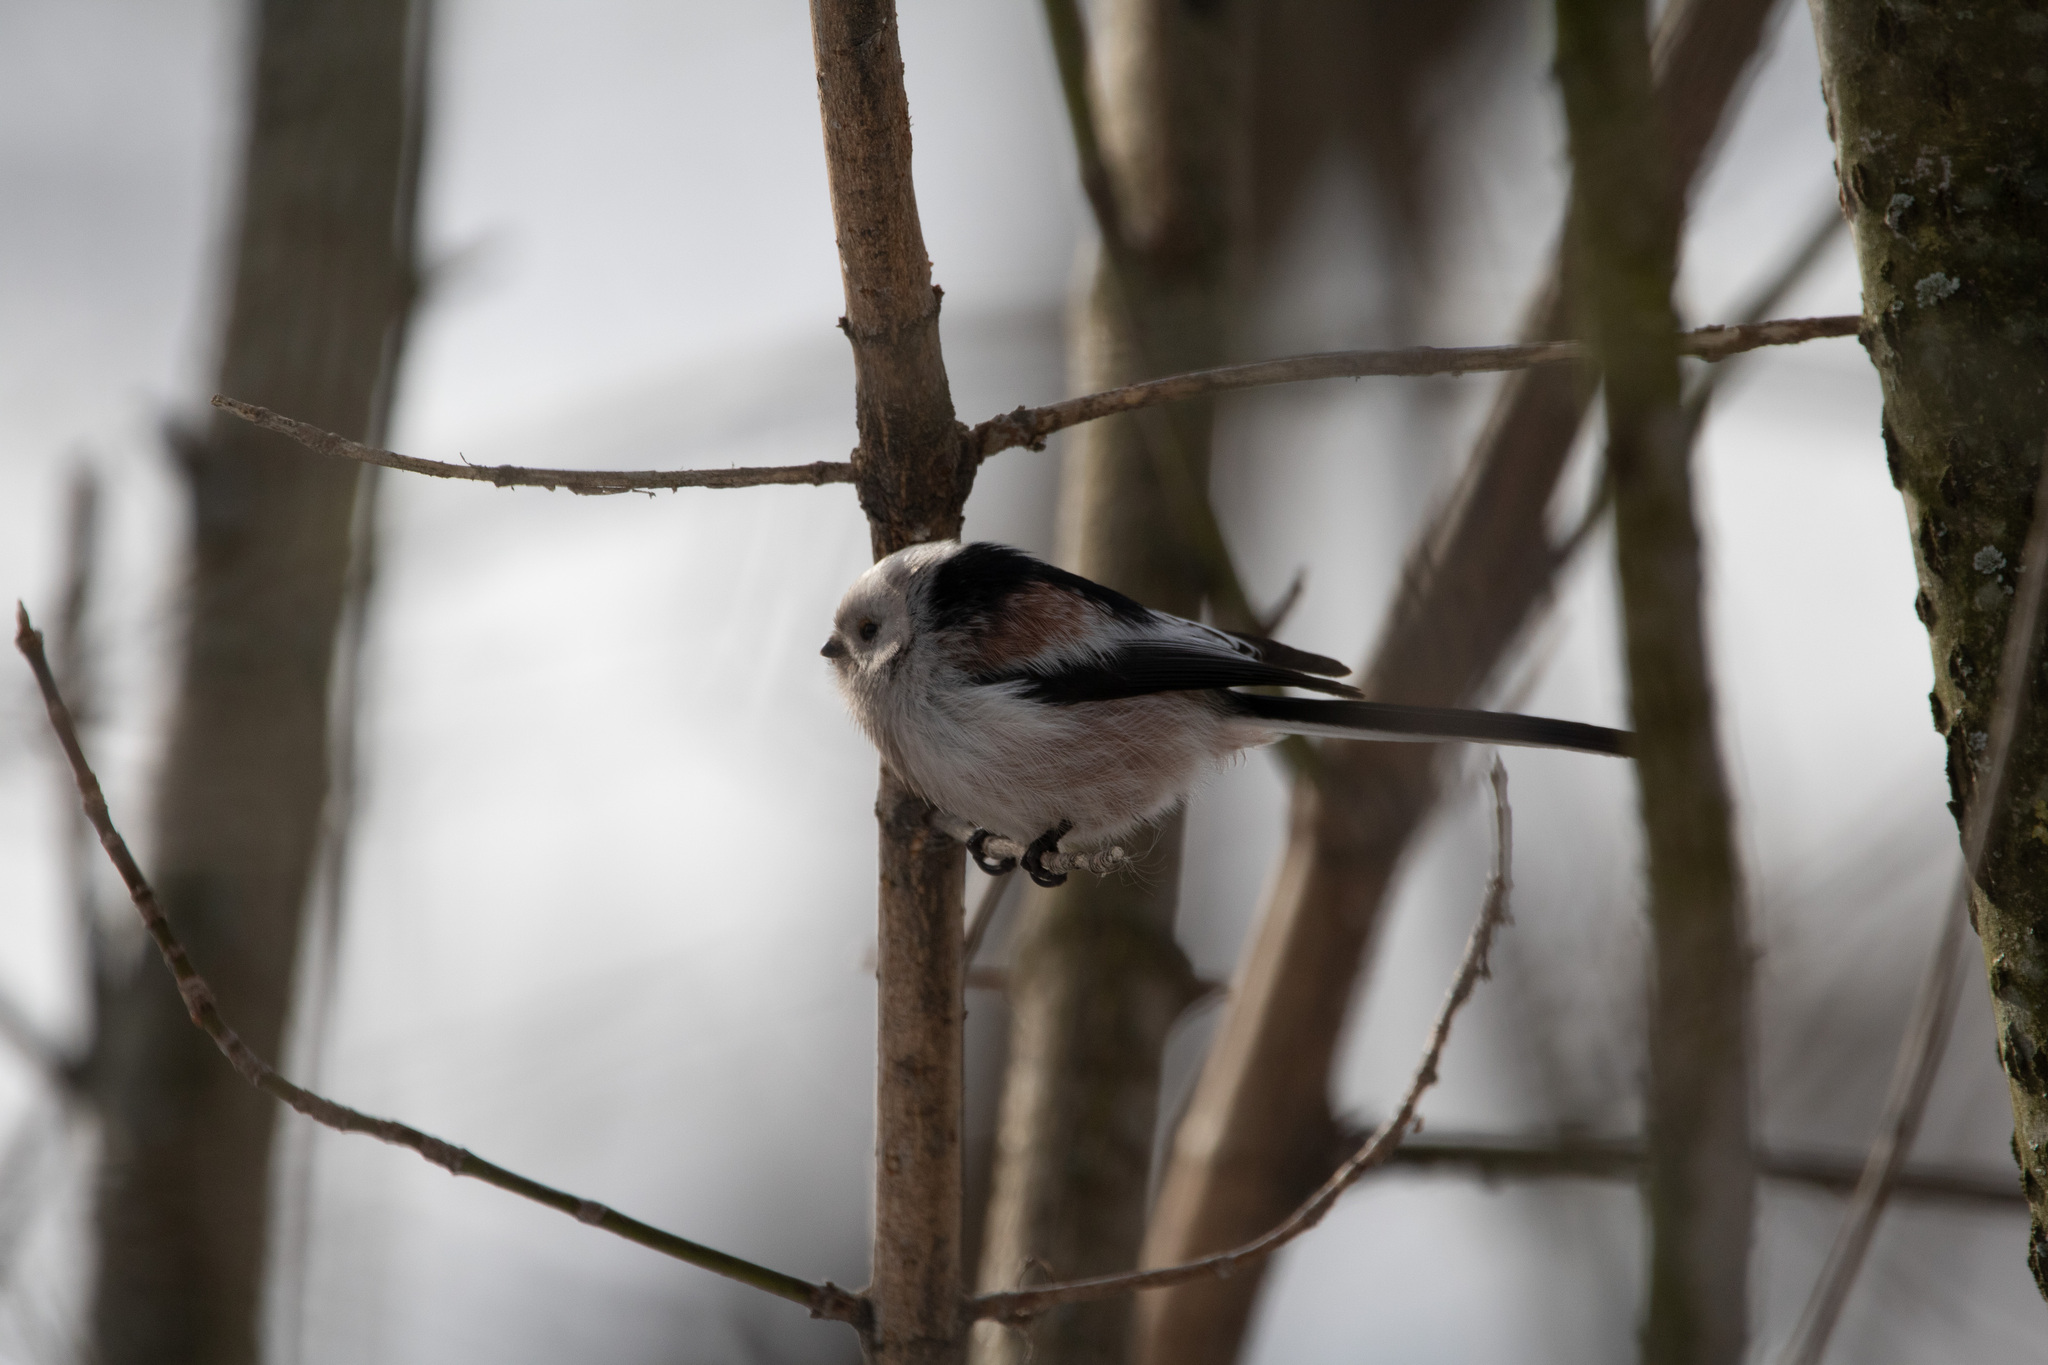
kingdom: Animalia
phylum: Chordata
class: Aves
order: Passeriformes
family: Aegithalidae
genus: Aegithalos
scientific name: Aegithalos caudatus
